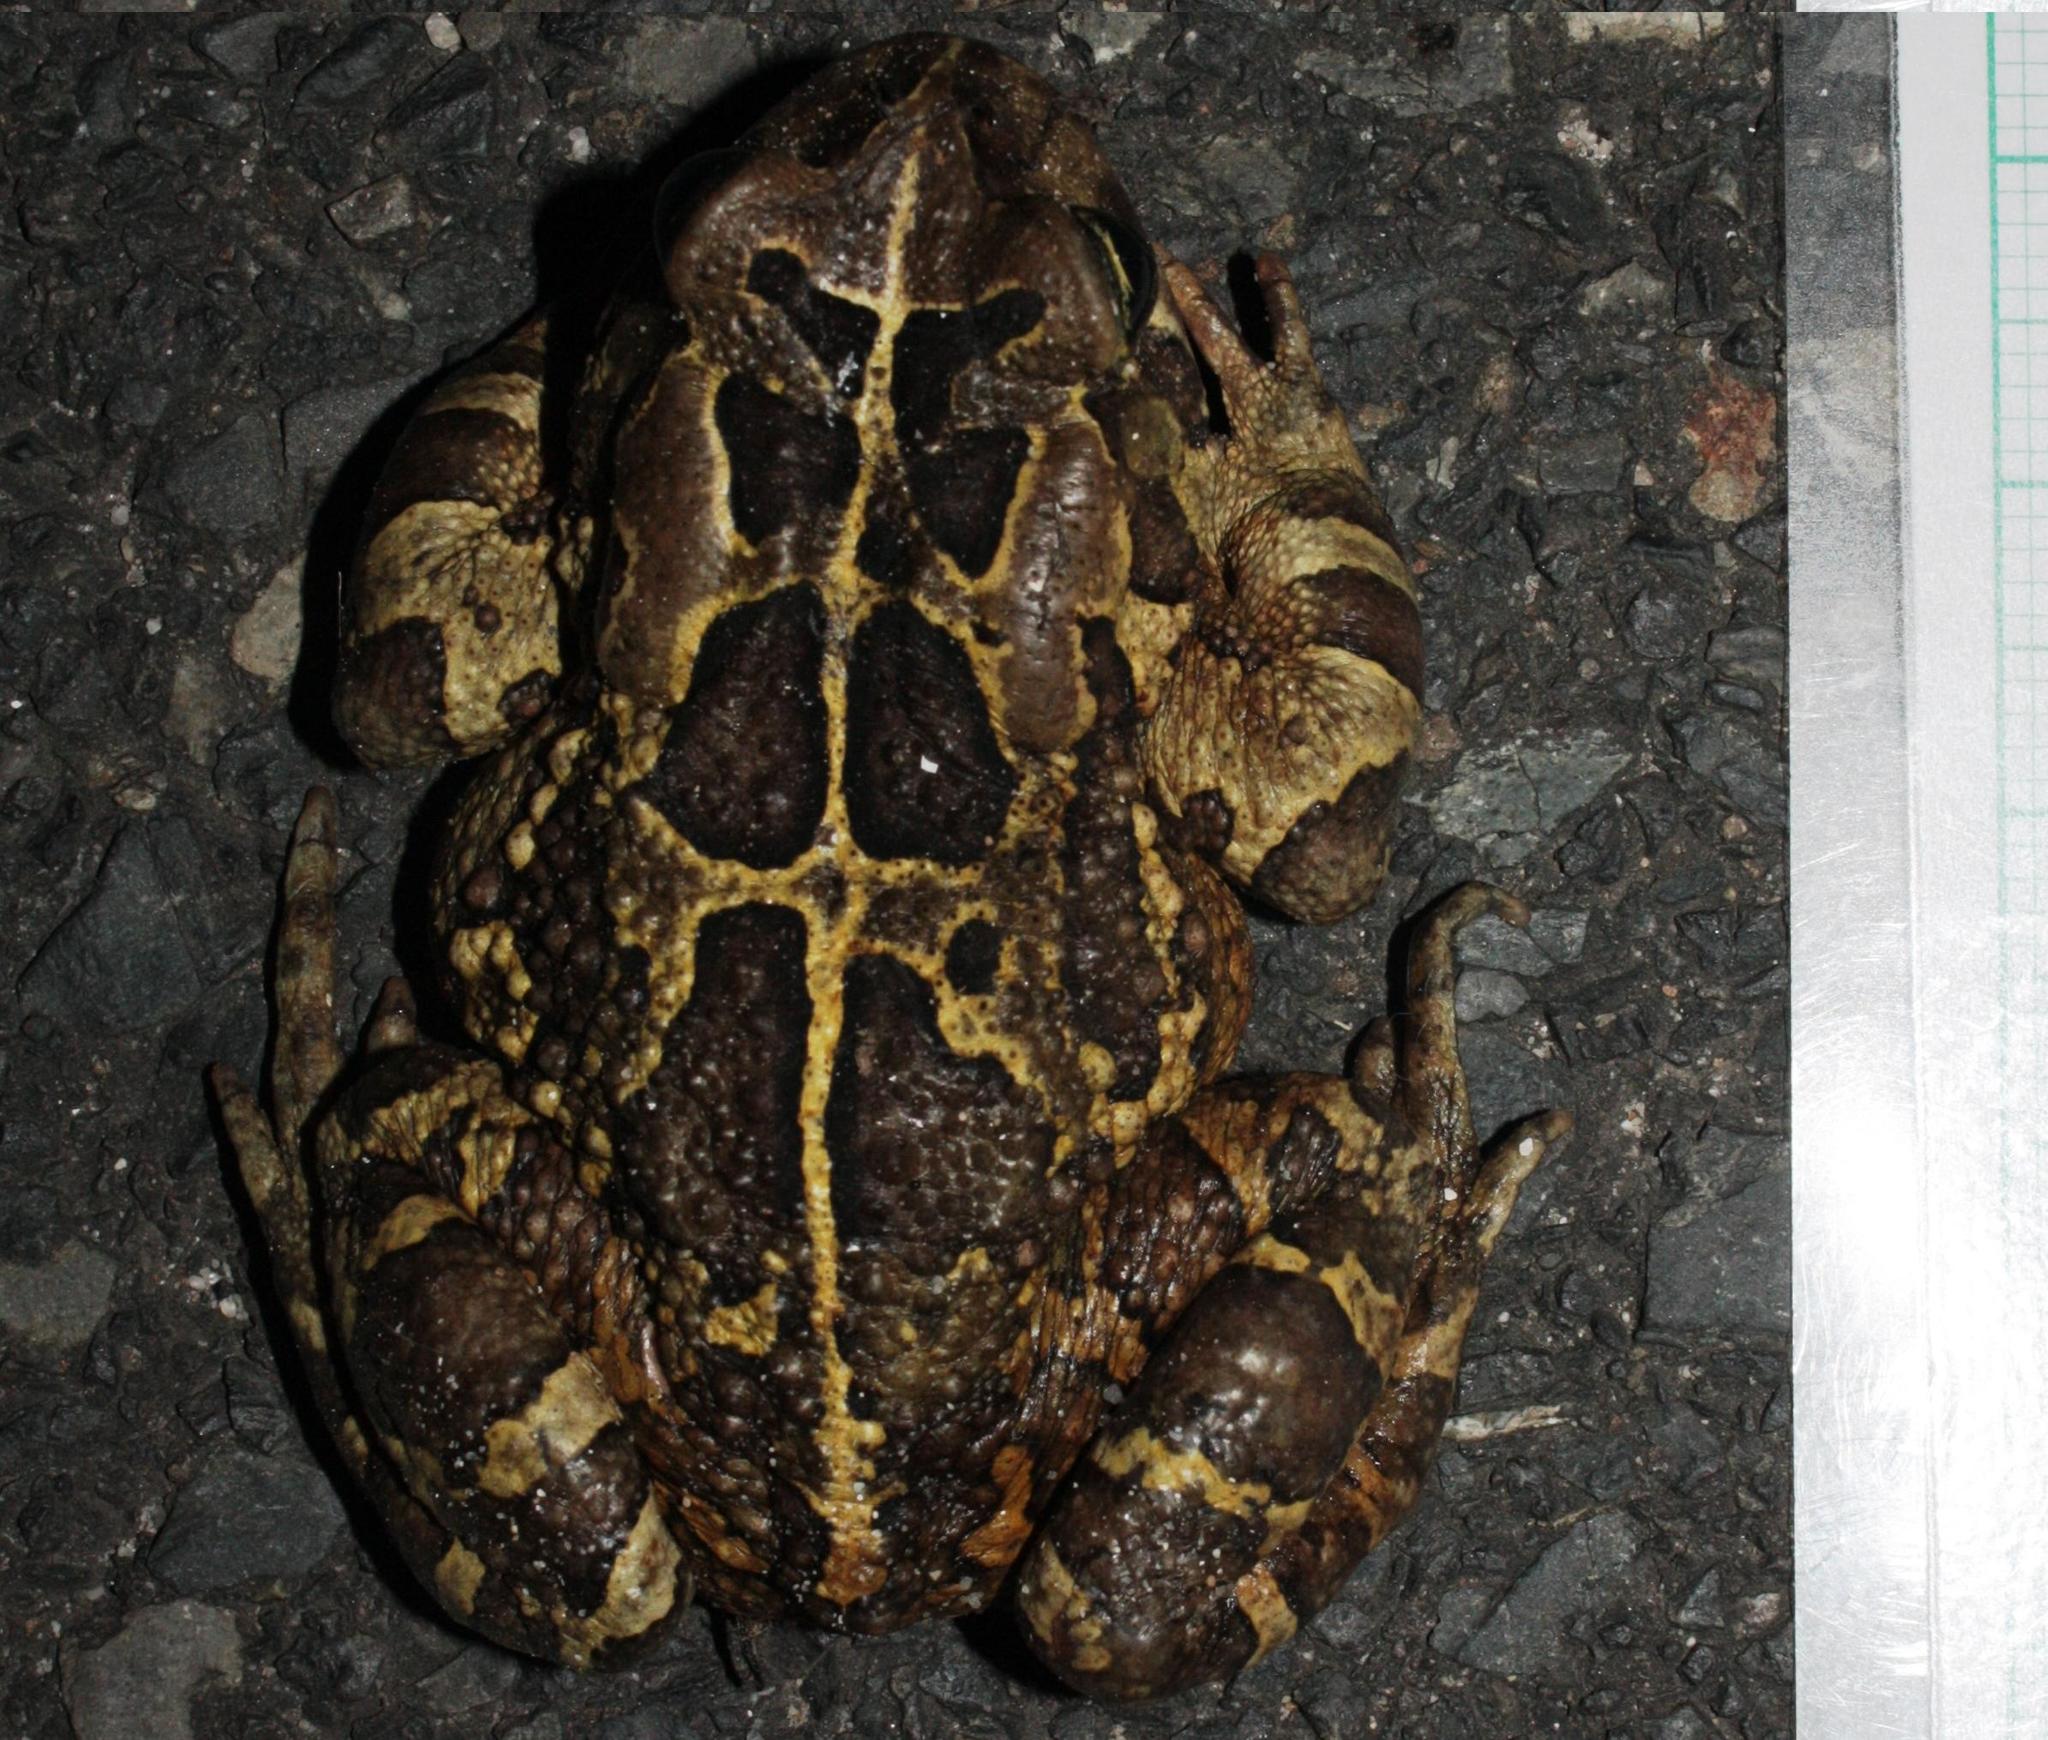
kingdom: Animalia
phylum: Chordata
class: Amphibia
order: Anura
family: Bufonidae
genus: Sclerophrys
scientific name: Sclerophrys pantherina
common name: Panther toad
